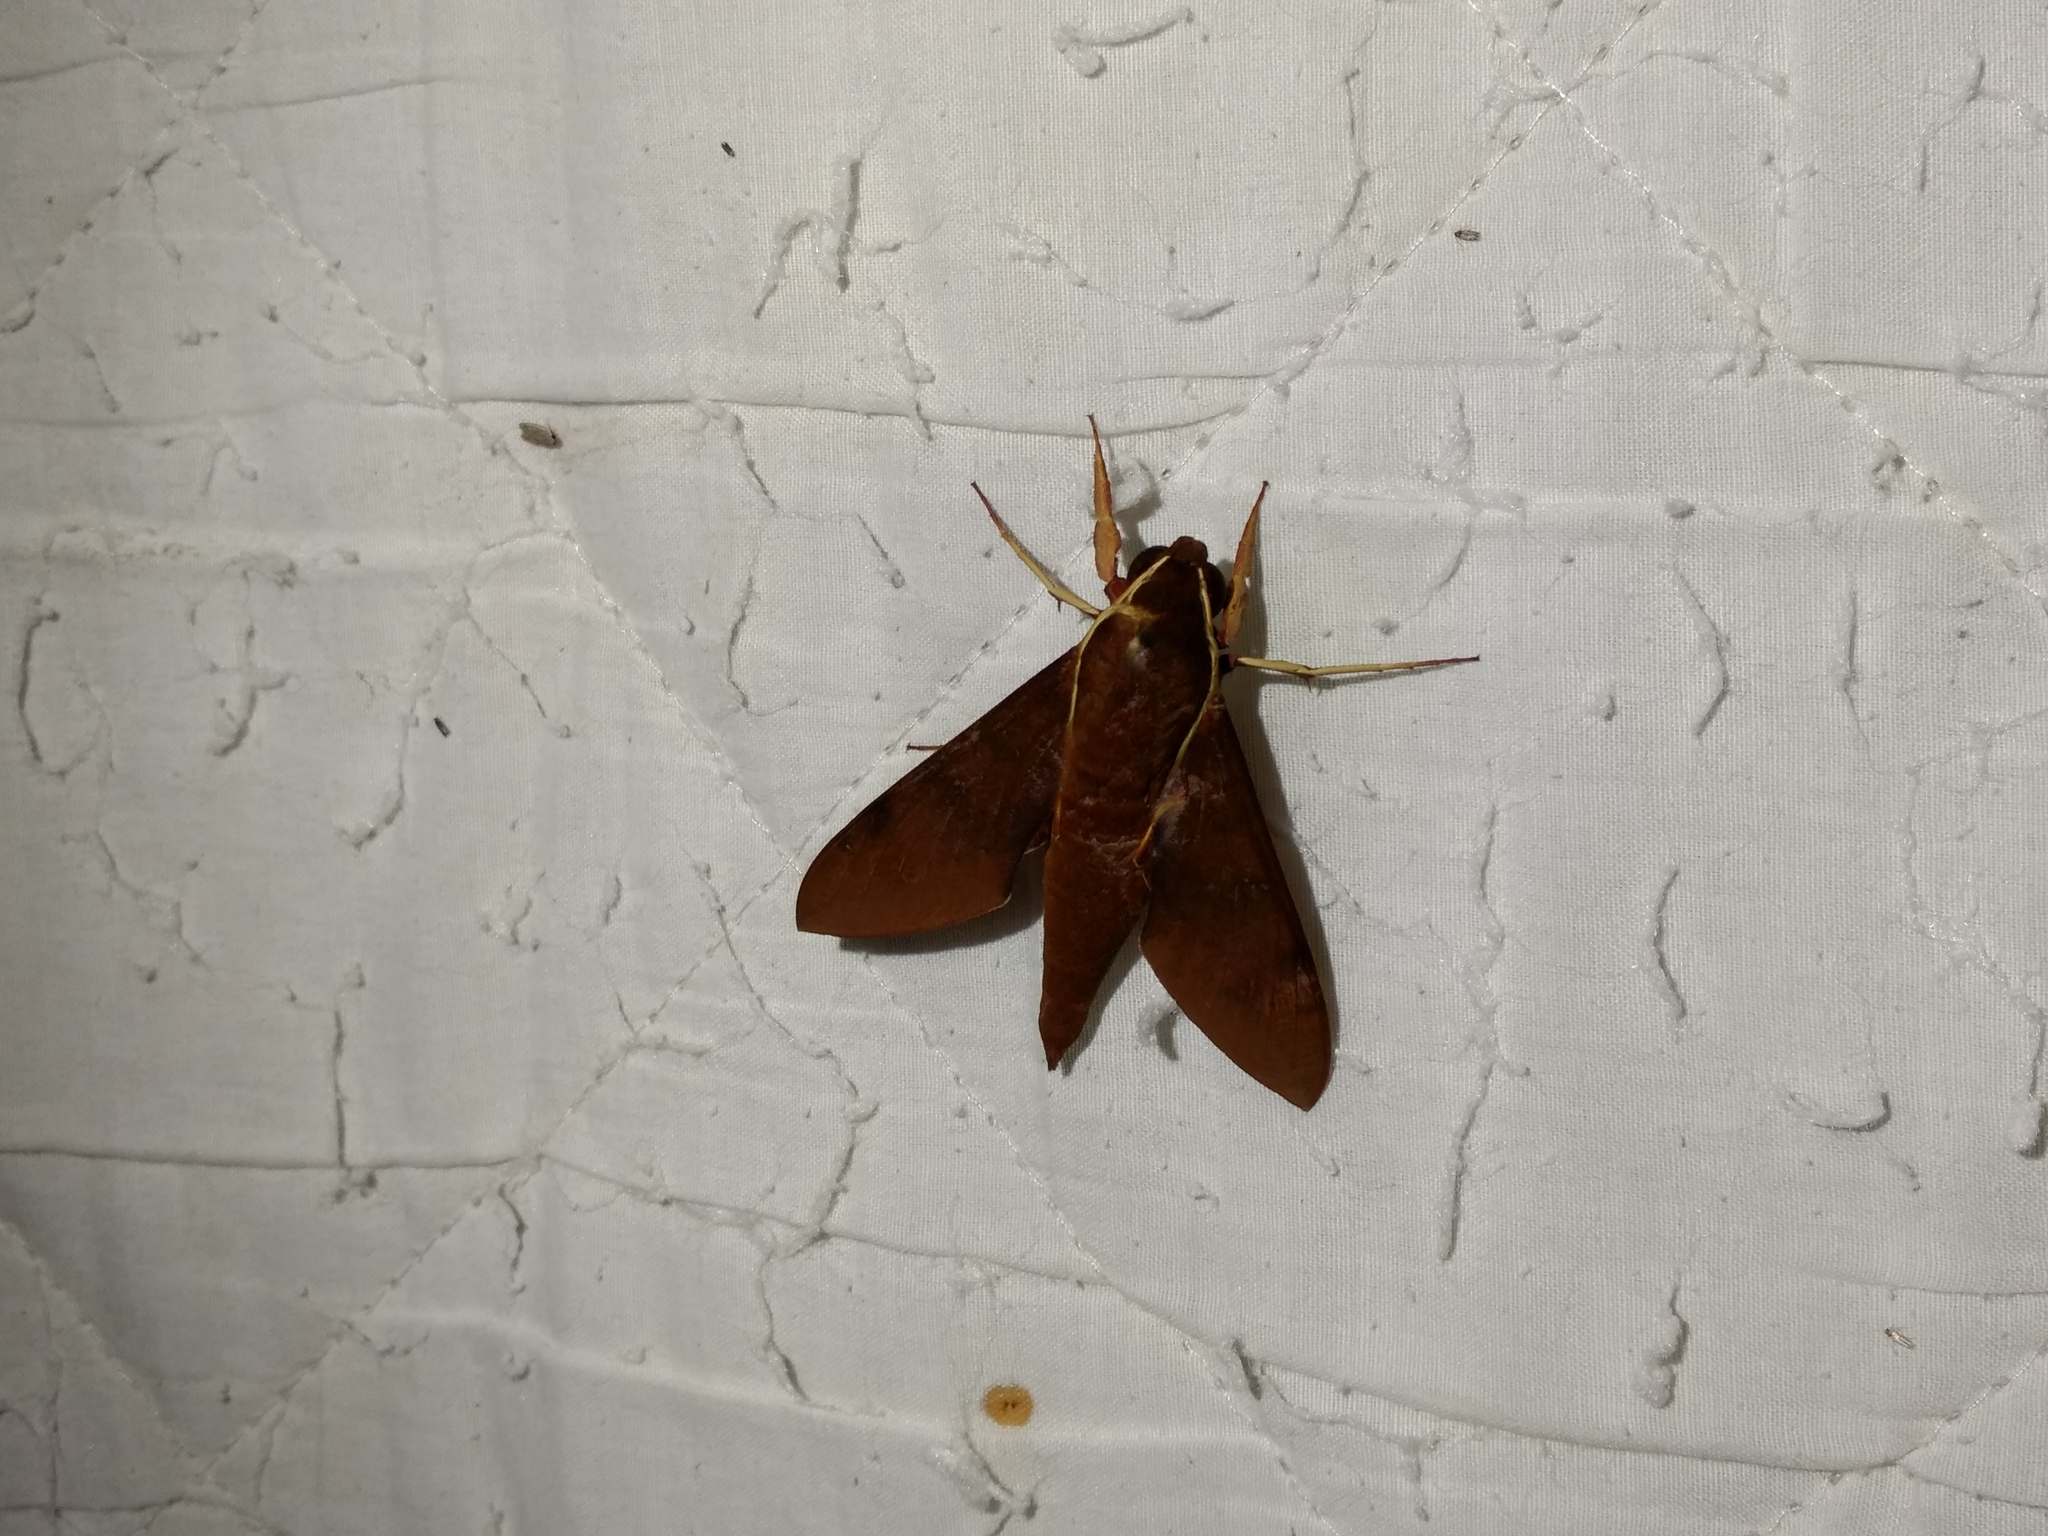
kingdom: Animalia
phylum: Arthropoda
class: Insecta
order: Lepidoptera
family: Sphingidae
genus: Gnathothlibus
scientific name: Gnathothlibus eras
